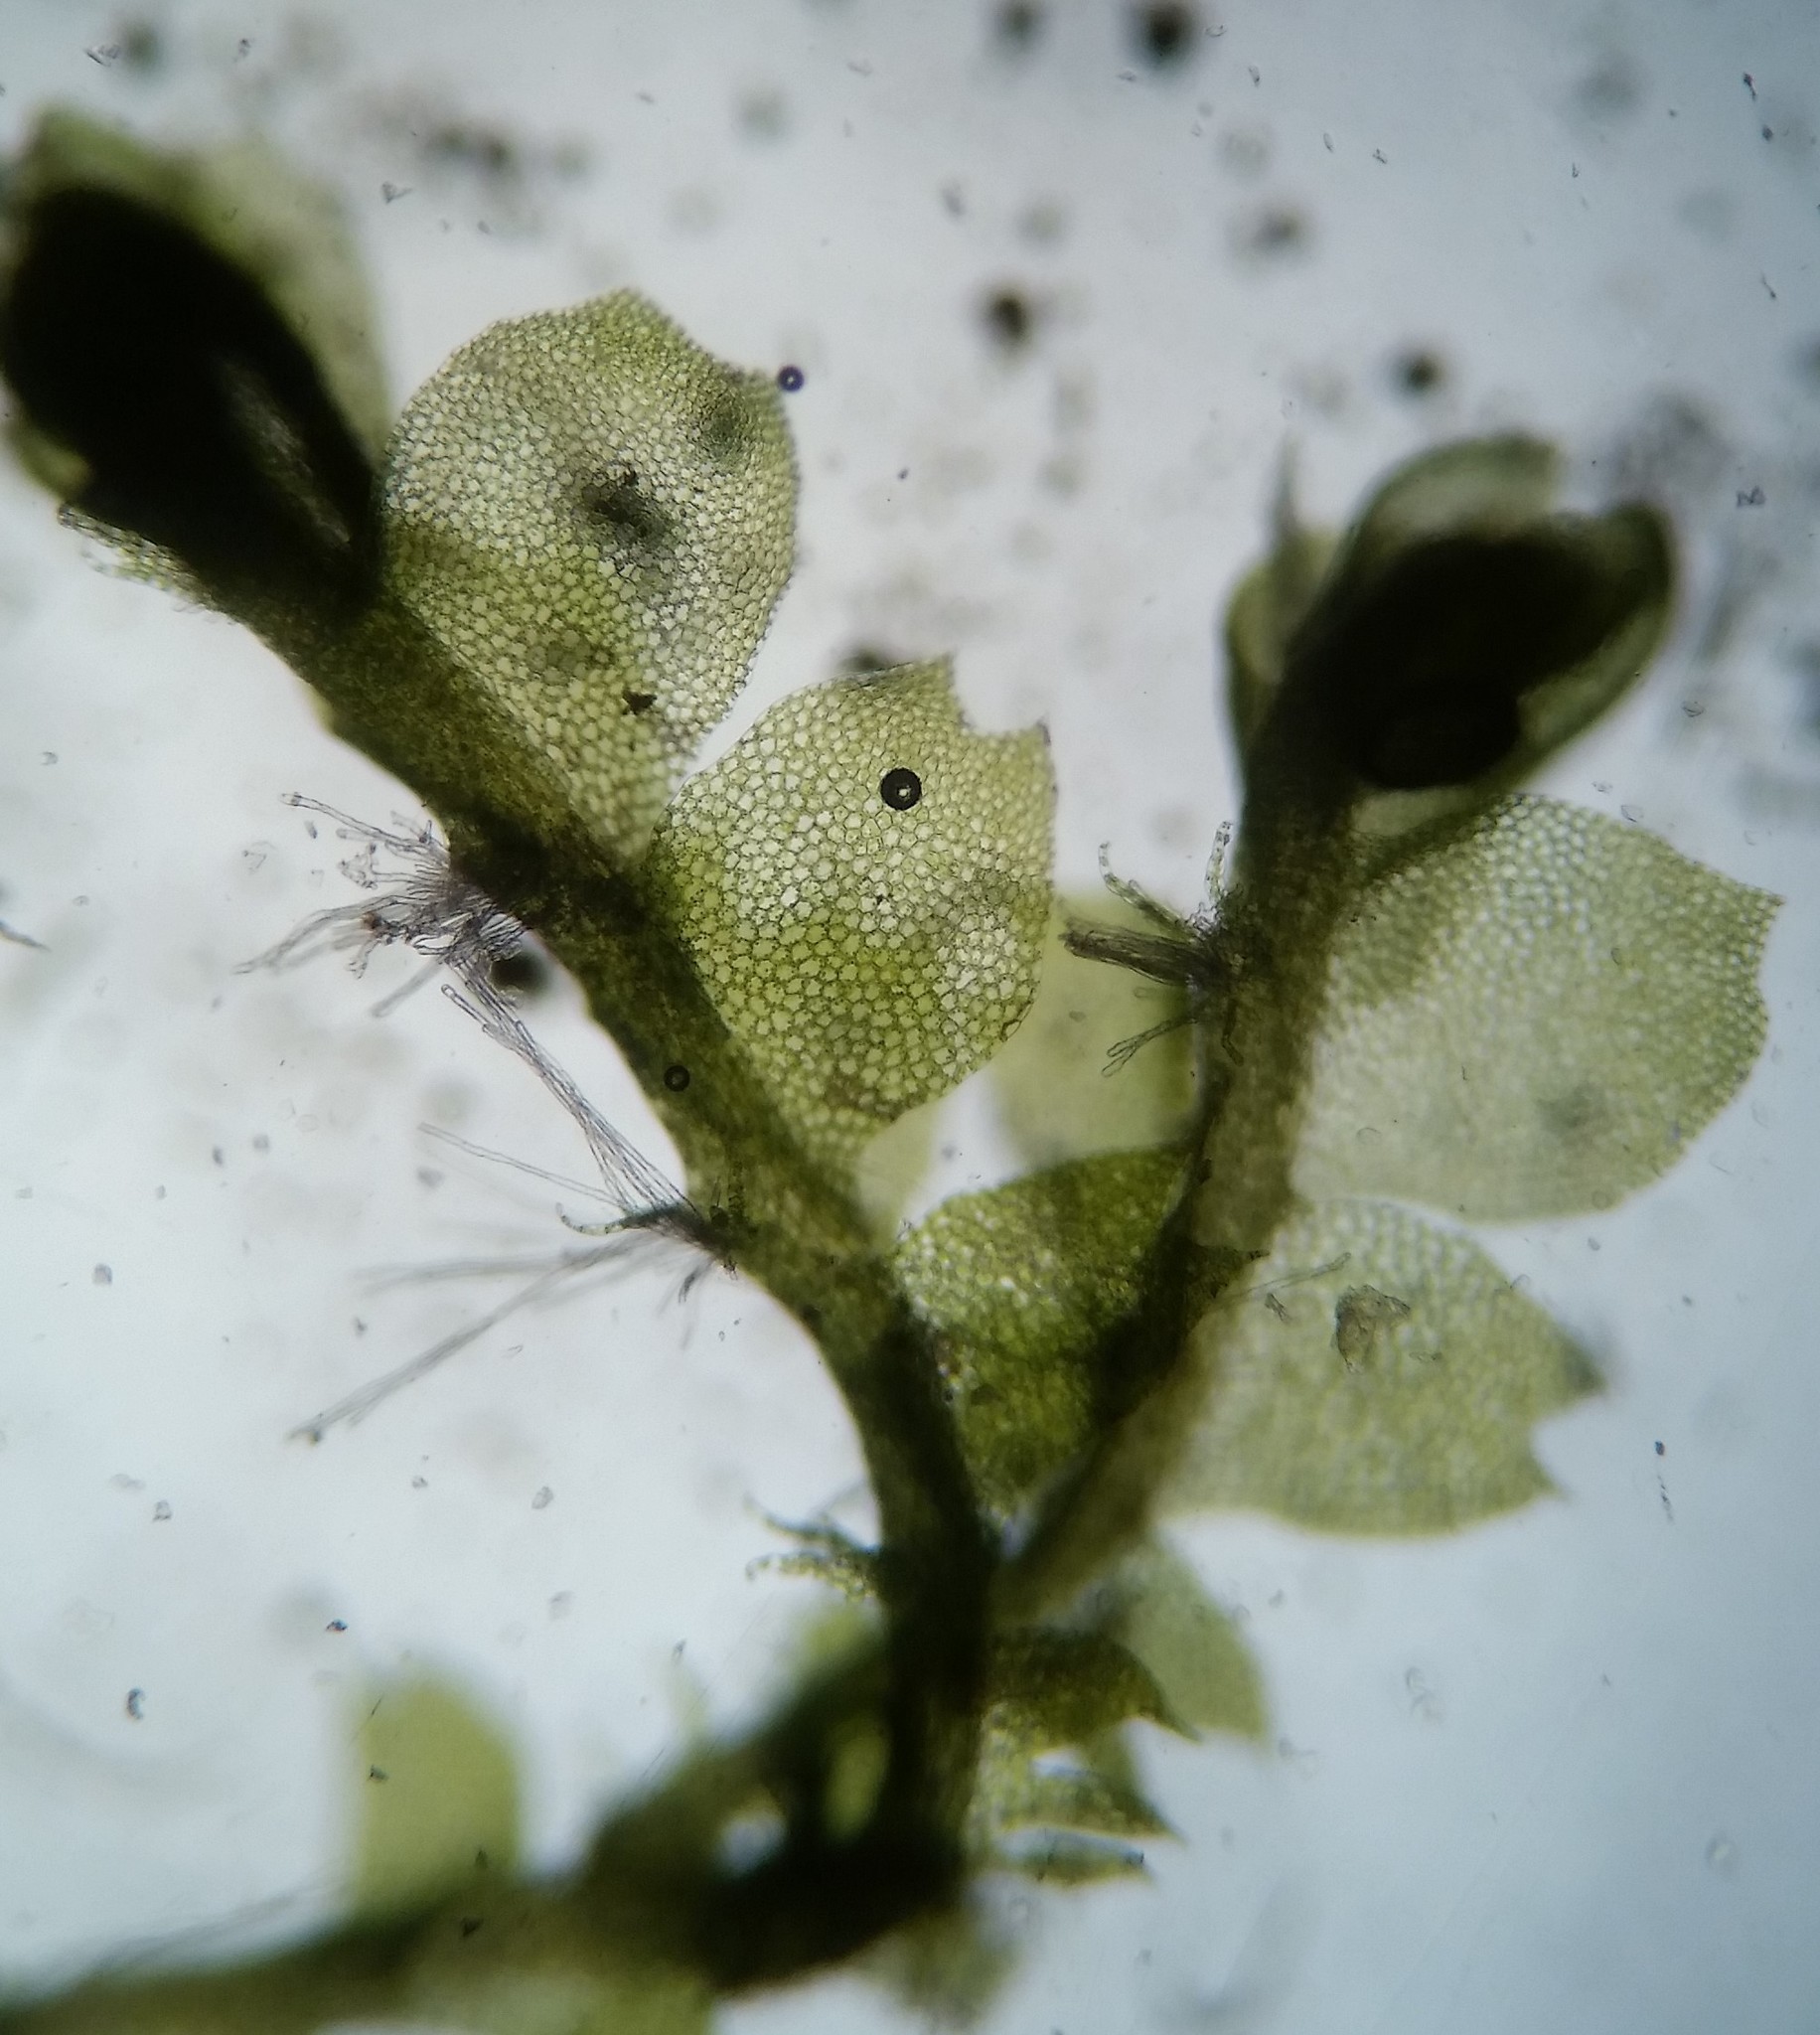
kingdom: Plantae
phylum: Marchantiophyta
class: Jungermanniopsida
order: Jungermanniales
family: Lophocoleaceae
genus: Lophocolea
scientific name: Lophocolea heterophylla
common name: Variable-leaved crestwort
